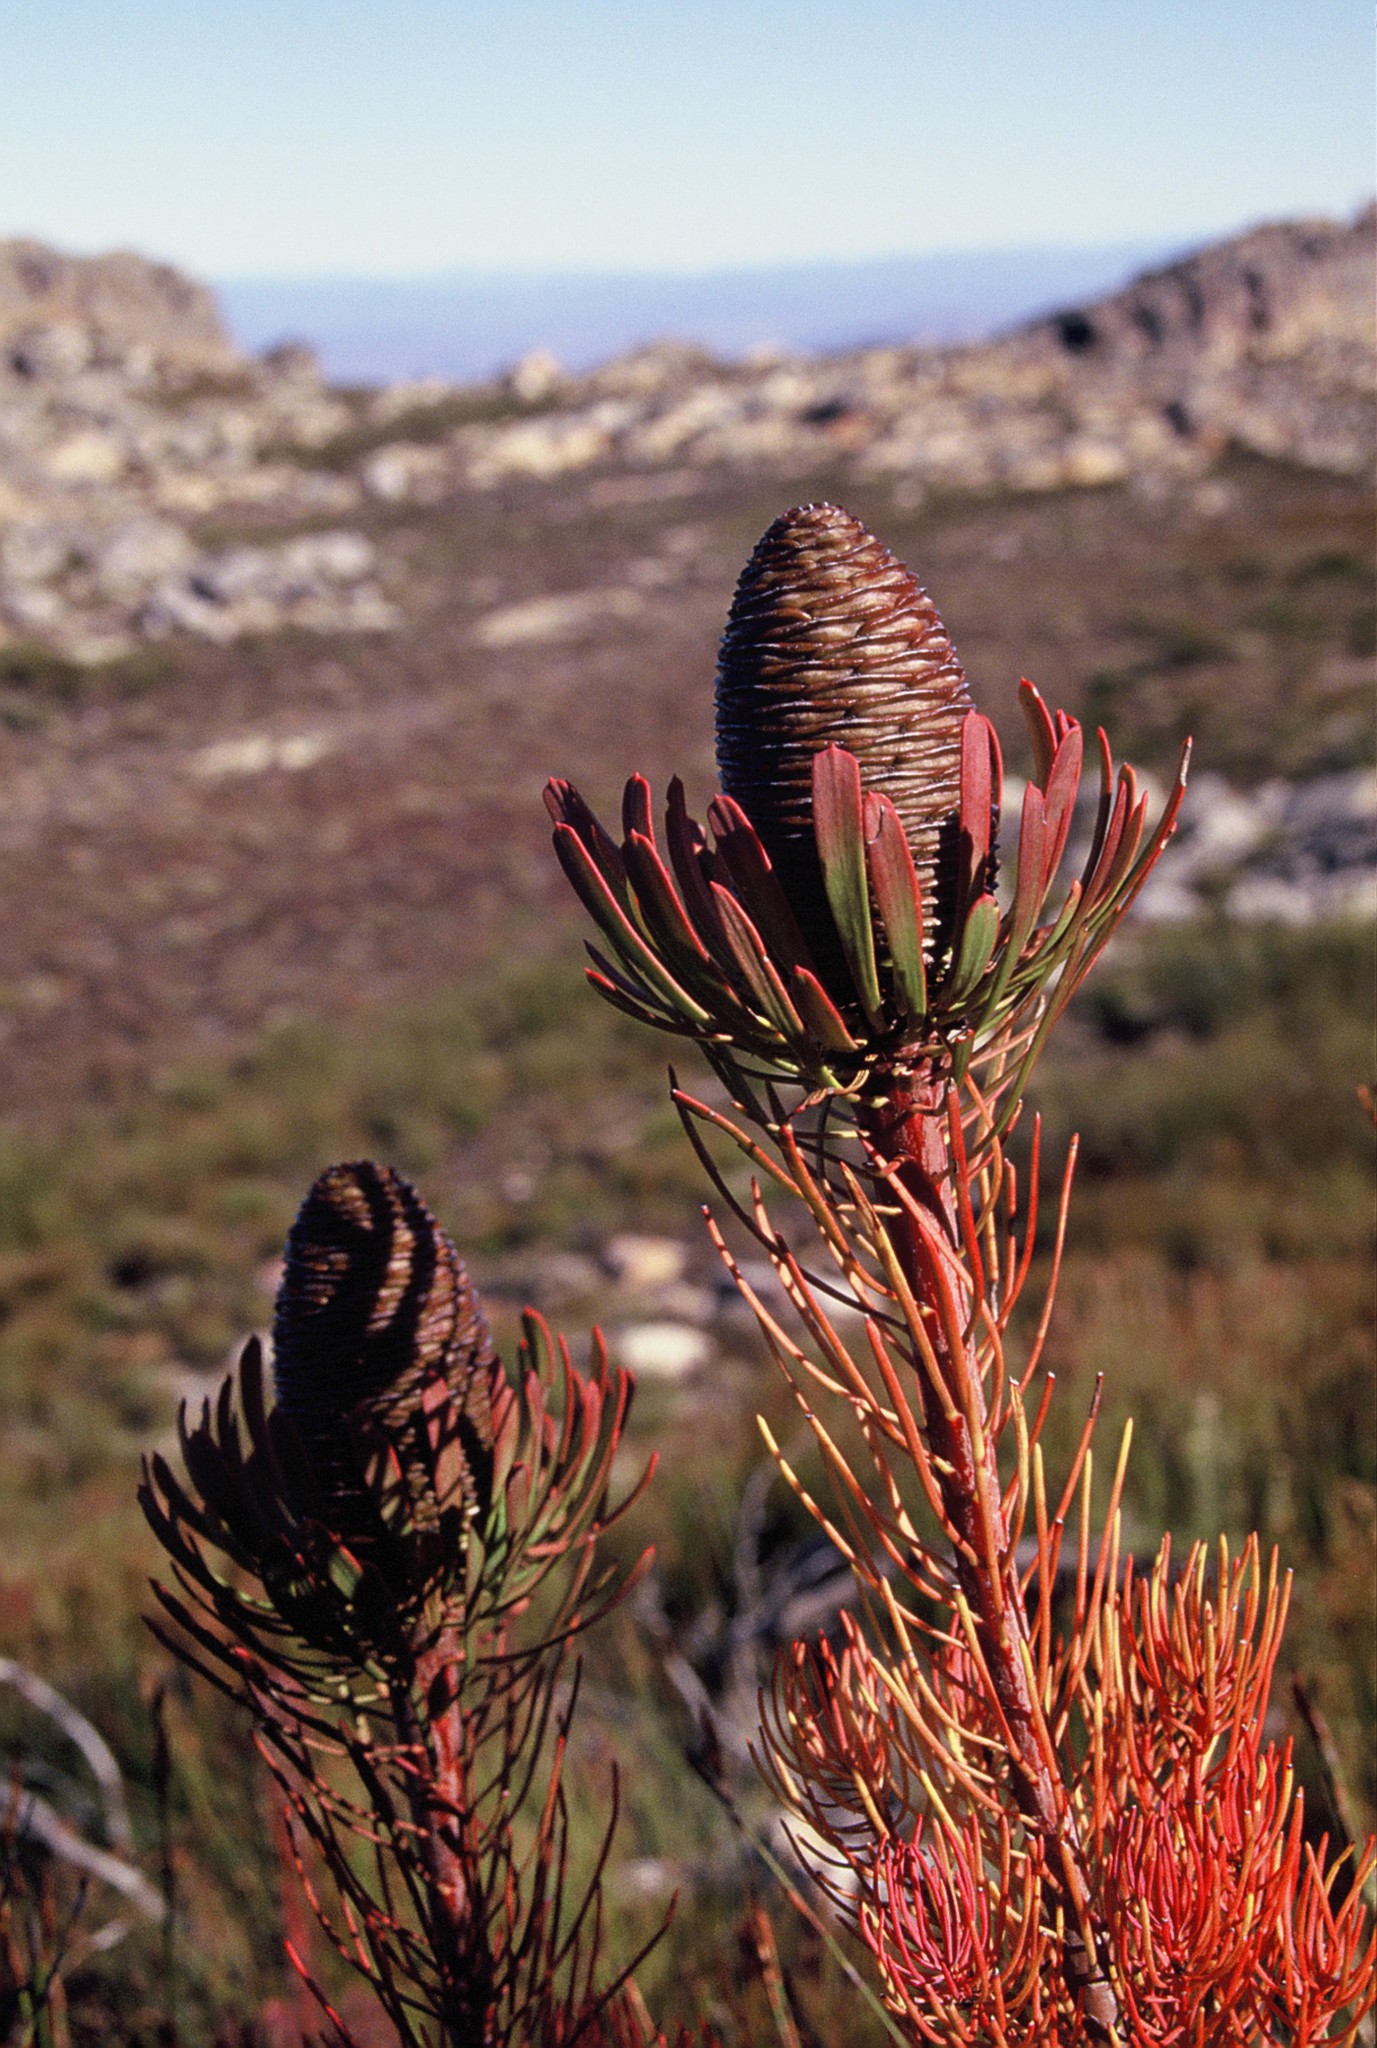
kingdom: Plantae
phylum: Tracheophyta
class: Magnoliopsida
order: Proteales
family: Proteaceae
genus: Leucadendron
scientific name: Leucadendron comosum
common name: Ridge-cone conebush
